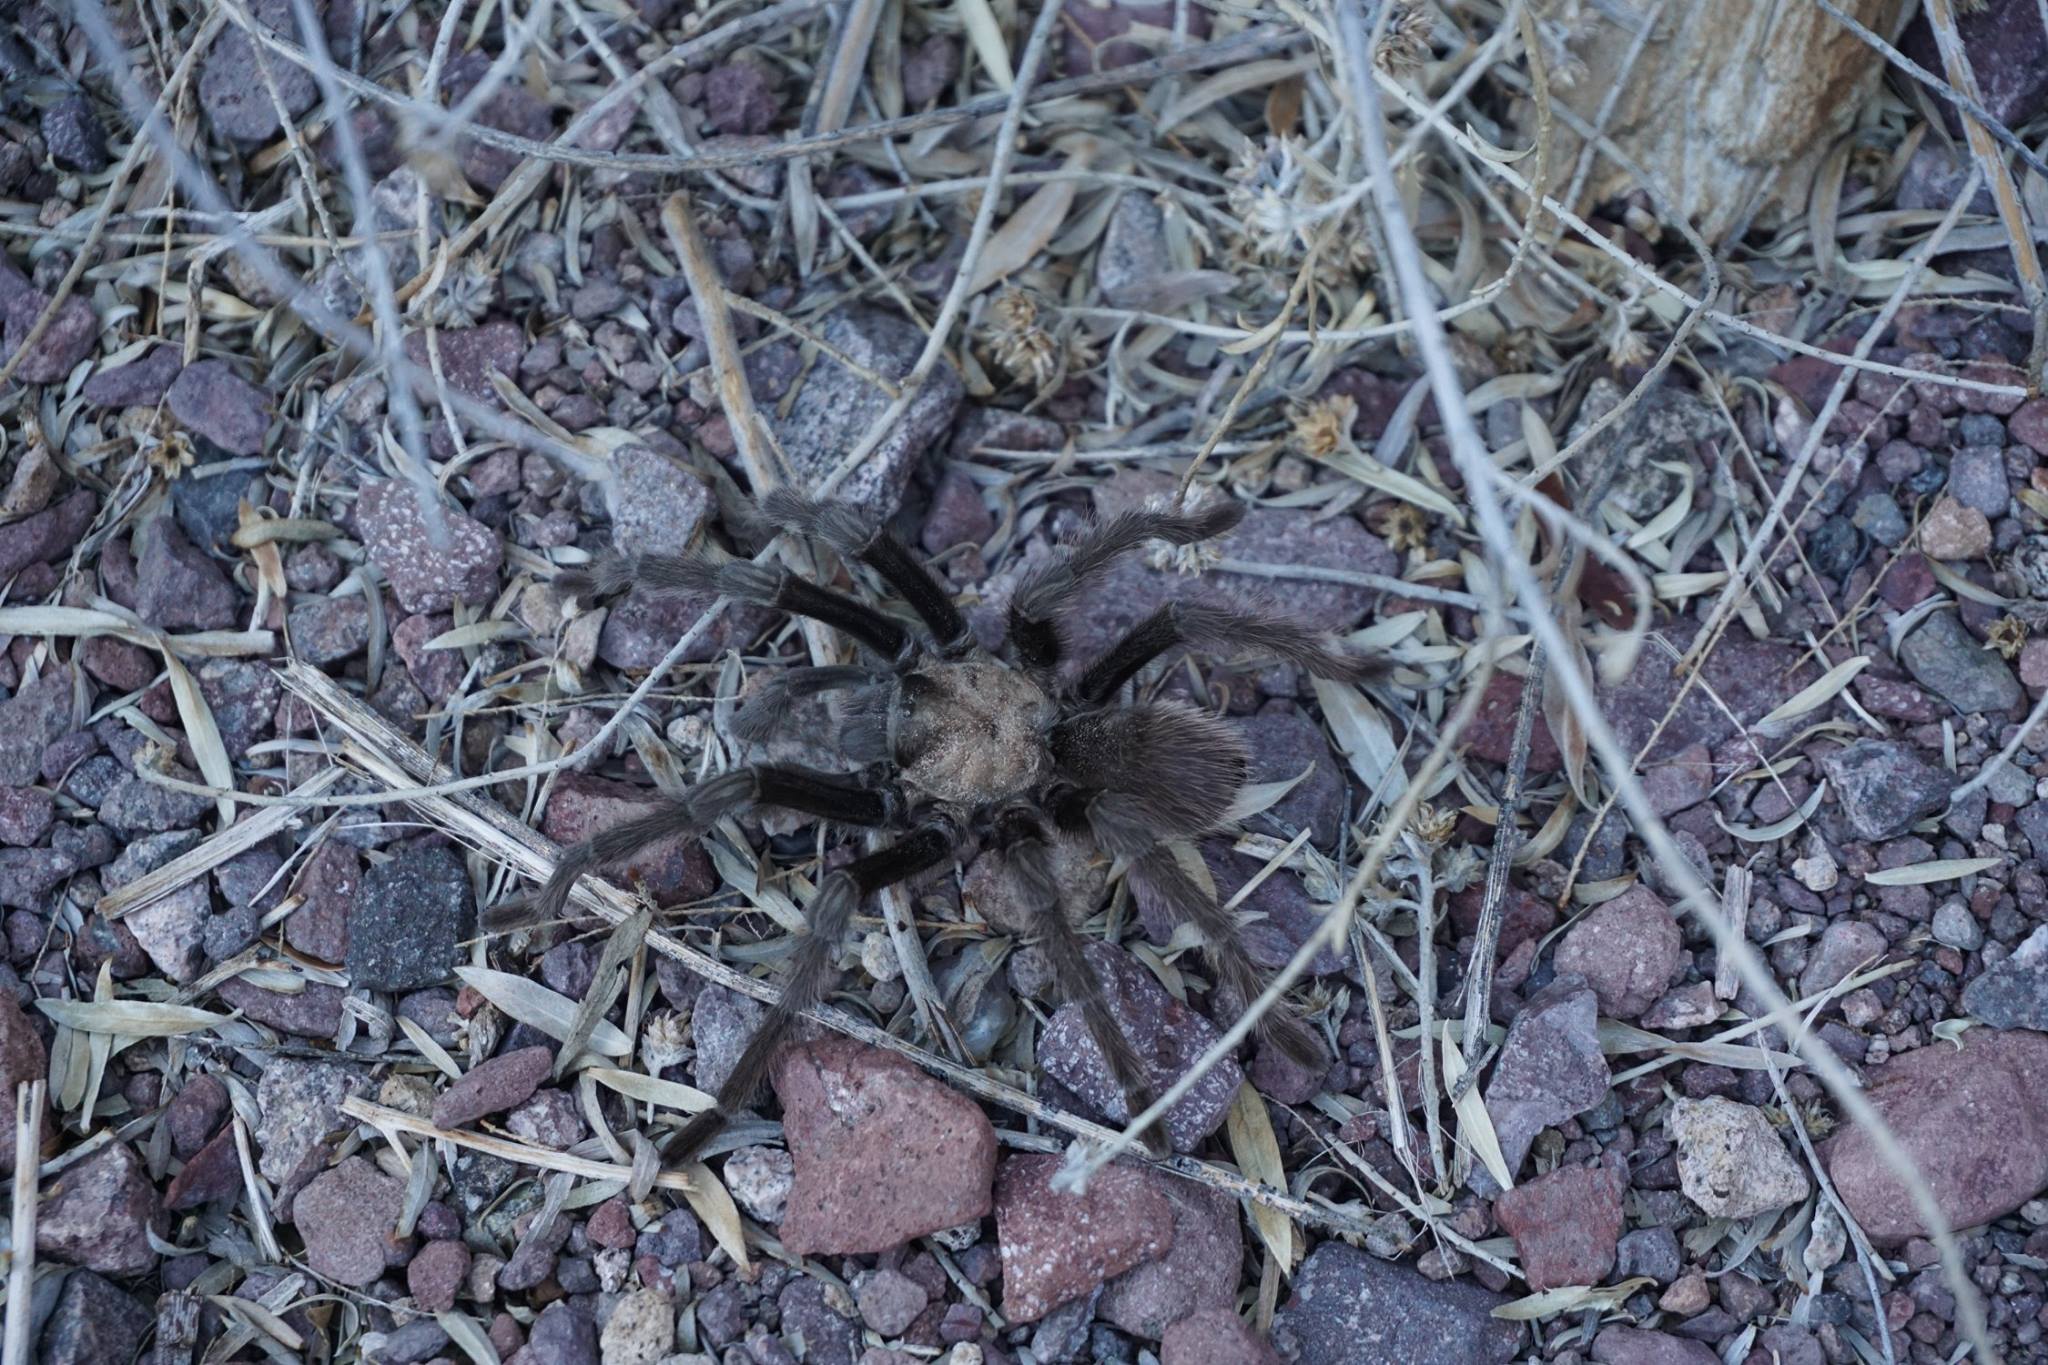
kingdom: Animalia
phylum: Arthropoda
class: Arachnida
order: Araneae
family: Theraphosidae
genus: Aphonopelma
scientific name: Aphonopelma iodius
